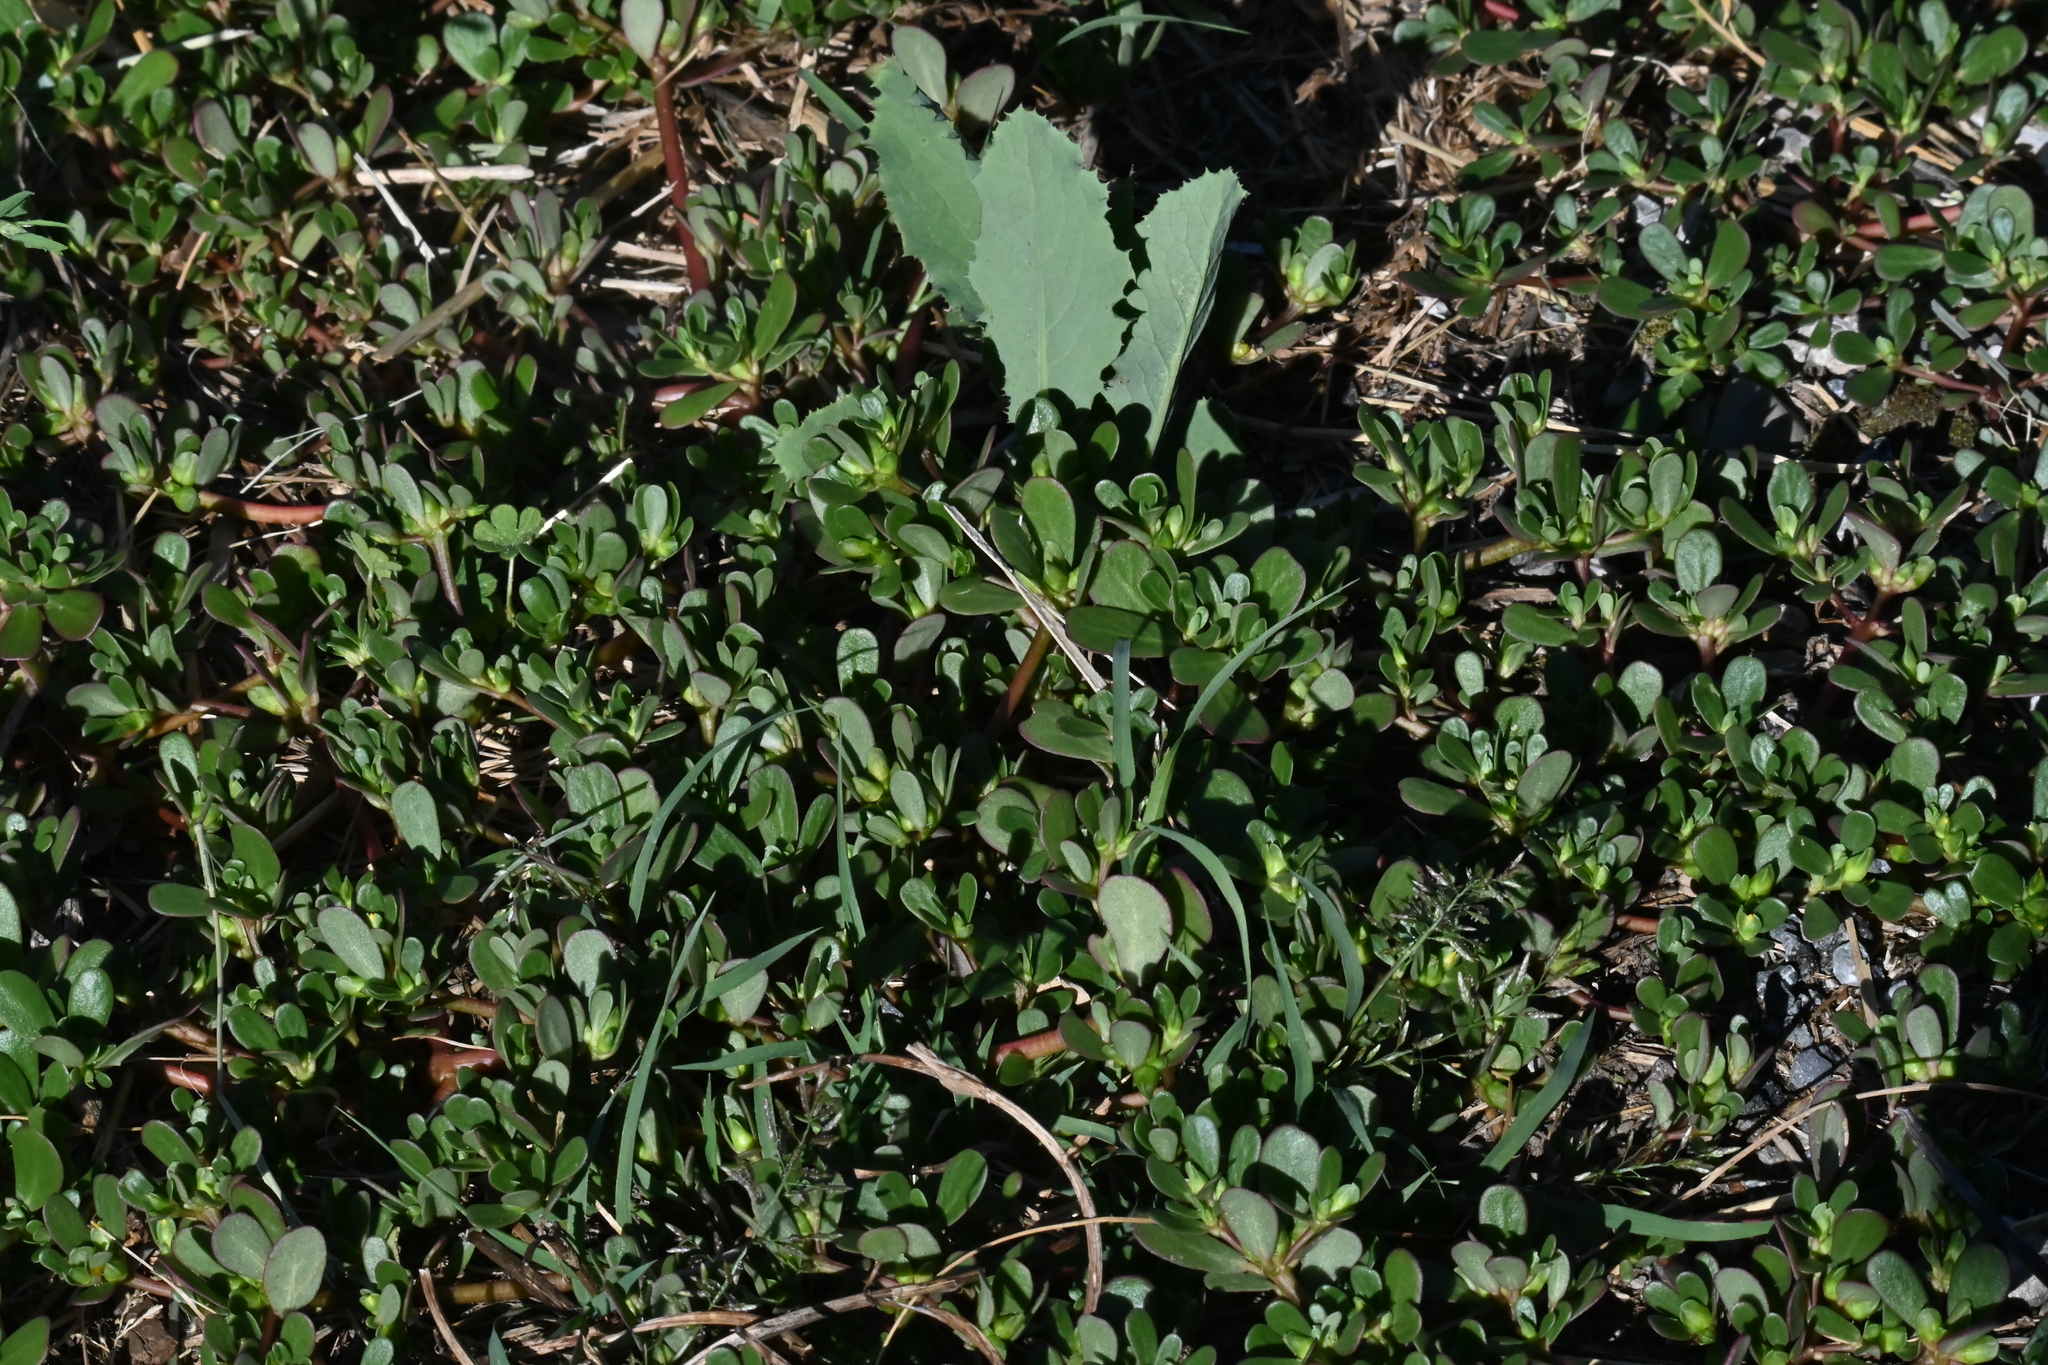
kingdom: Plantae
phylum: Tracheophyta
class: Magnoliopsida
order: Caryophyllales
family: Portulacaceae
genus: Portulaca
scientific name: Portulaca oleracea
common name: Common purslane
